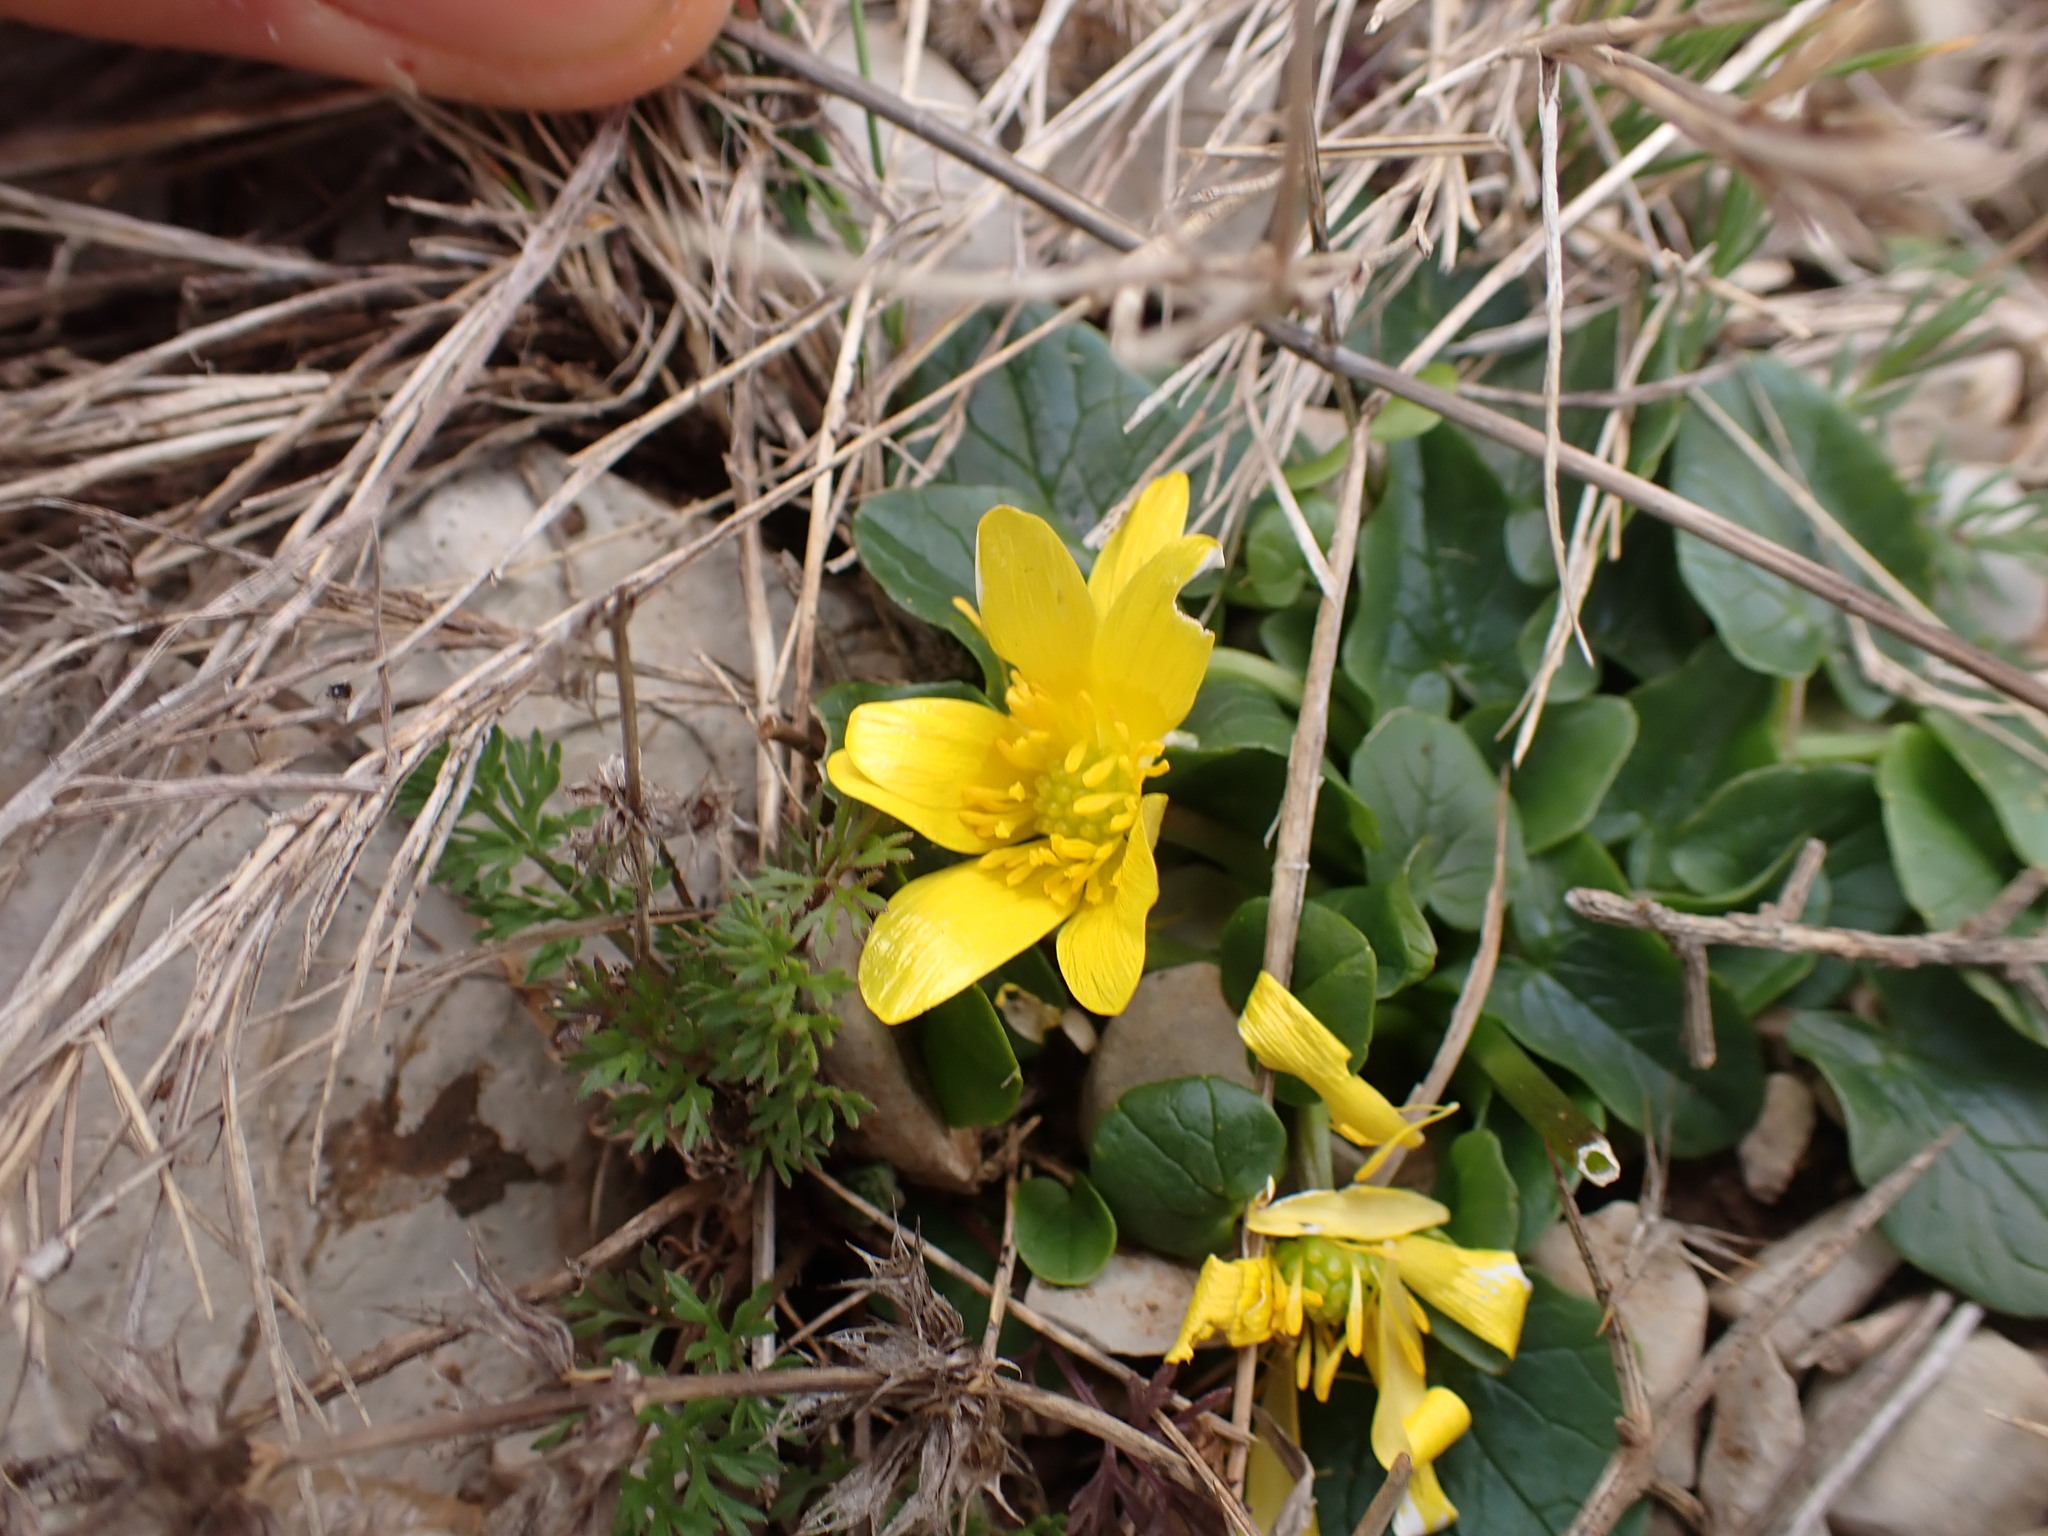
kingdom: Plantae
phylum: Tracheophyta
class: Magnoliopsida
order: Ranunculales
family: Ranunculaceae
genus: Ficaria
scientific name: Ficaria verna
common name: Lesser celandine
